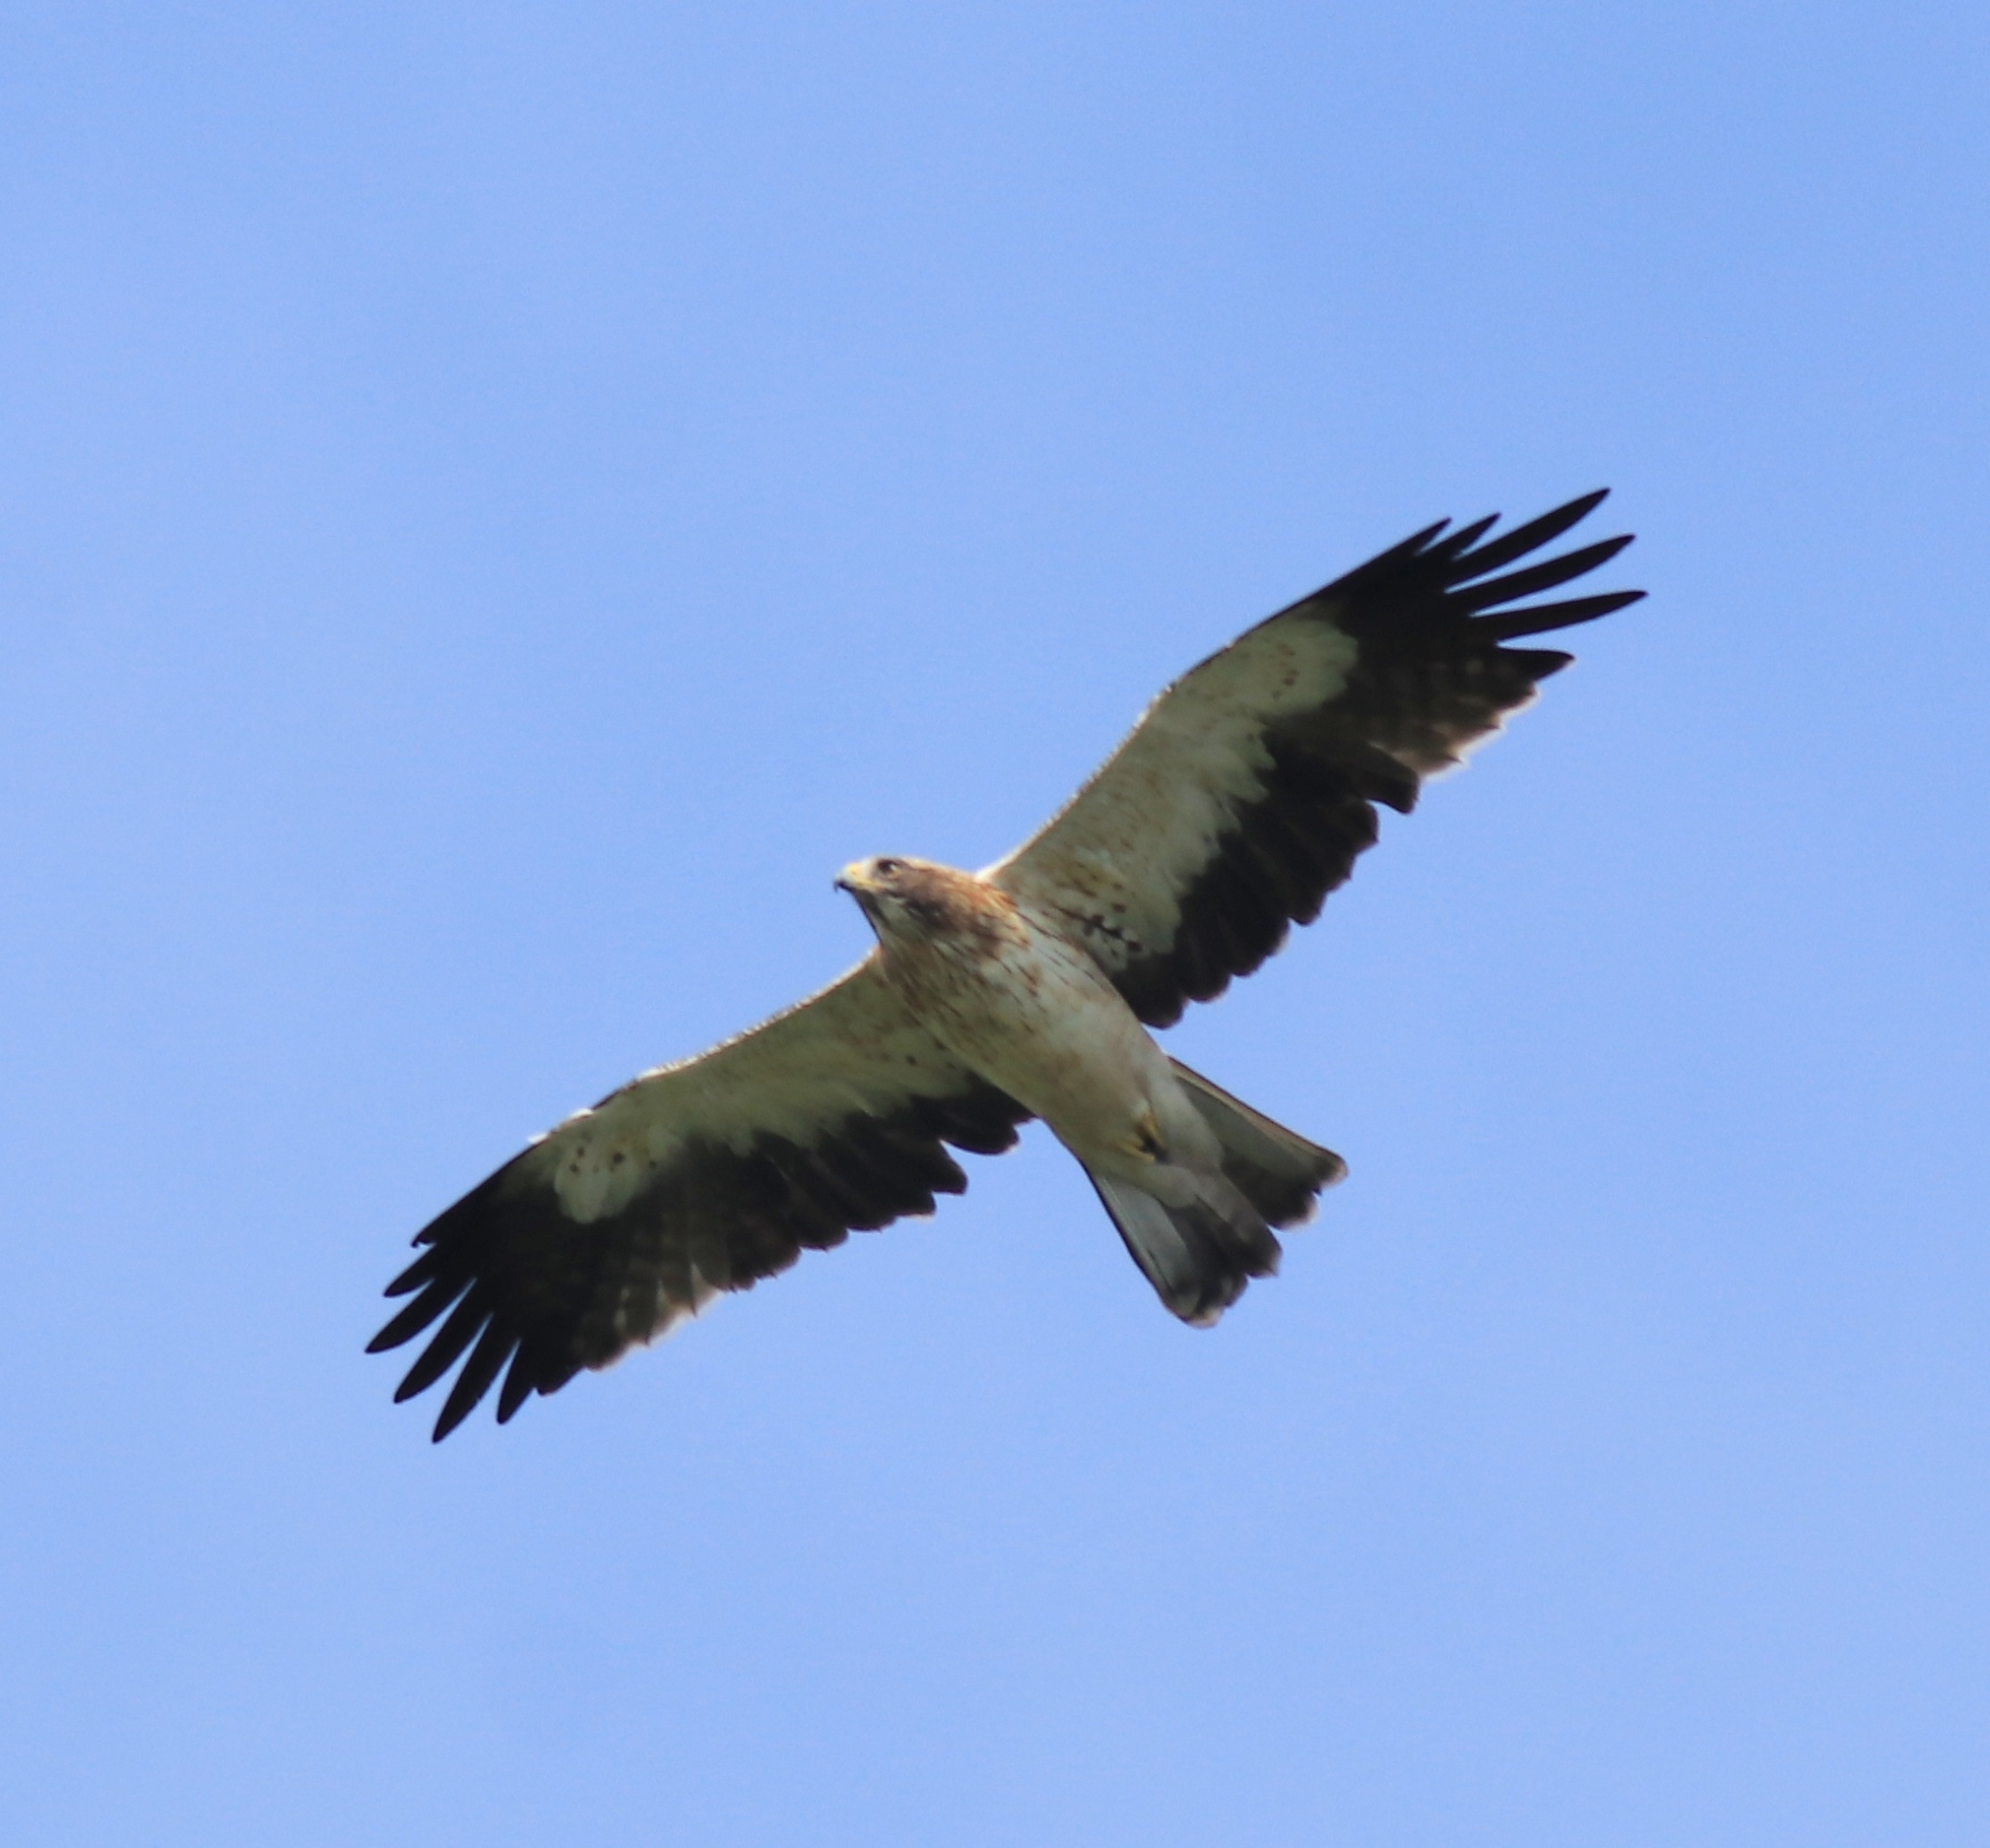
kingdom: Animalia
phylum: Chordata
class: Aves
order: Accipitriformes
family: Accipitridae
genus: Hieraaetus
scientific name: Hieraaetus pennatus
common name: Booted eagle
